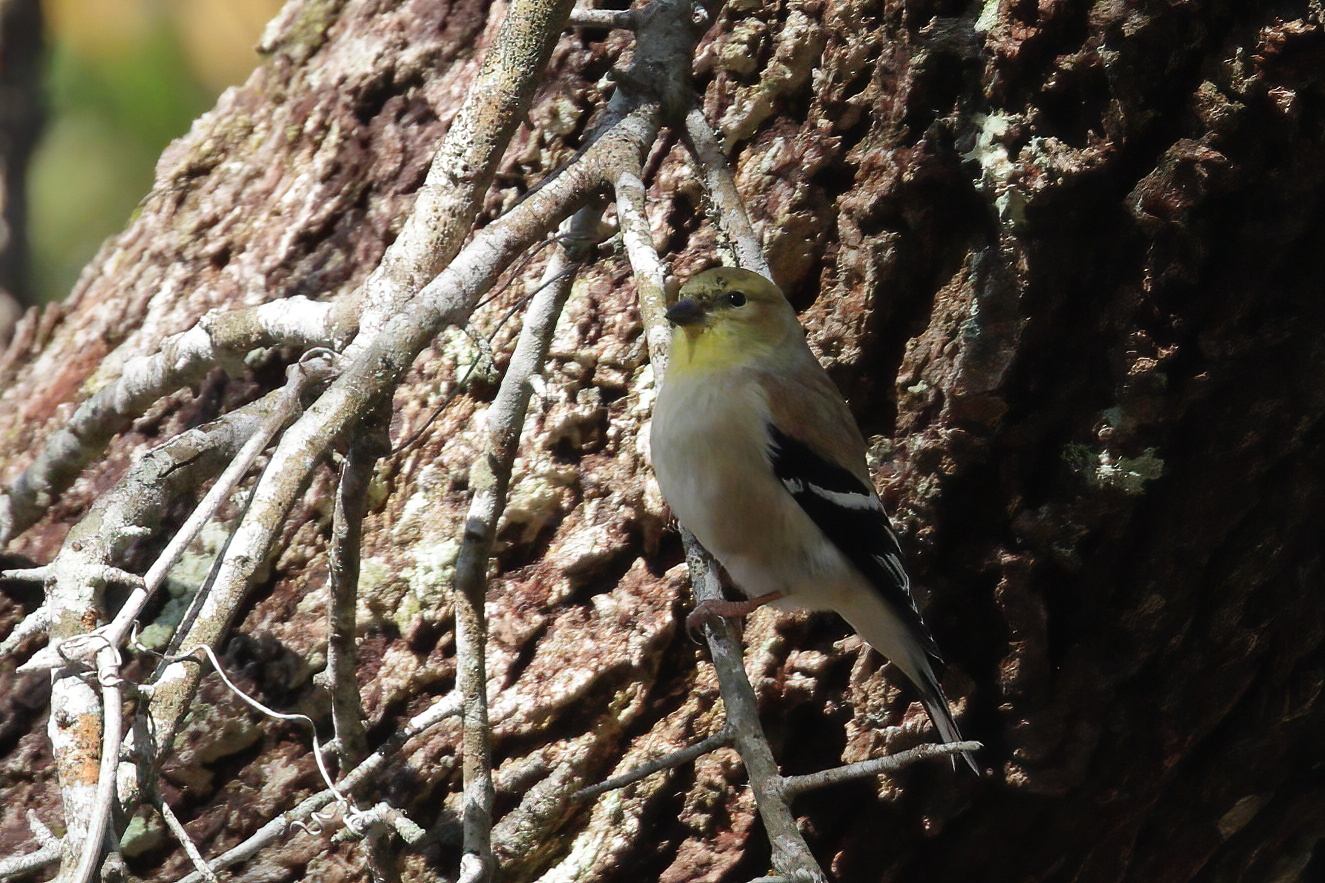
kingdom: Animalia
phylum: Chordata
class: Aves
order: Passeriformes
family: Fringillidae
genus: Spinus
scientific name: Spinus tristis
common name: American goldfinch
